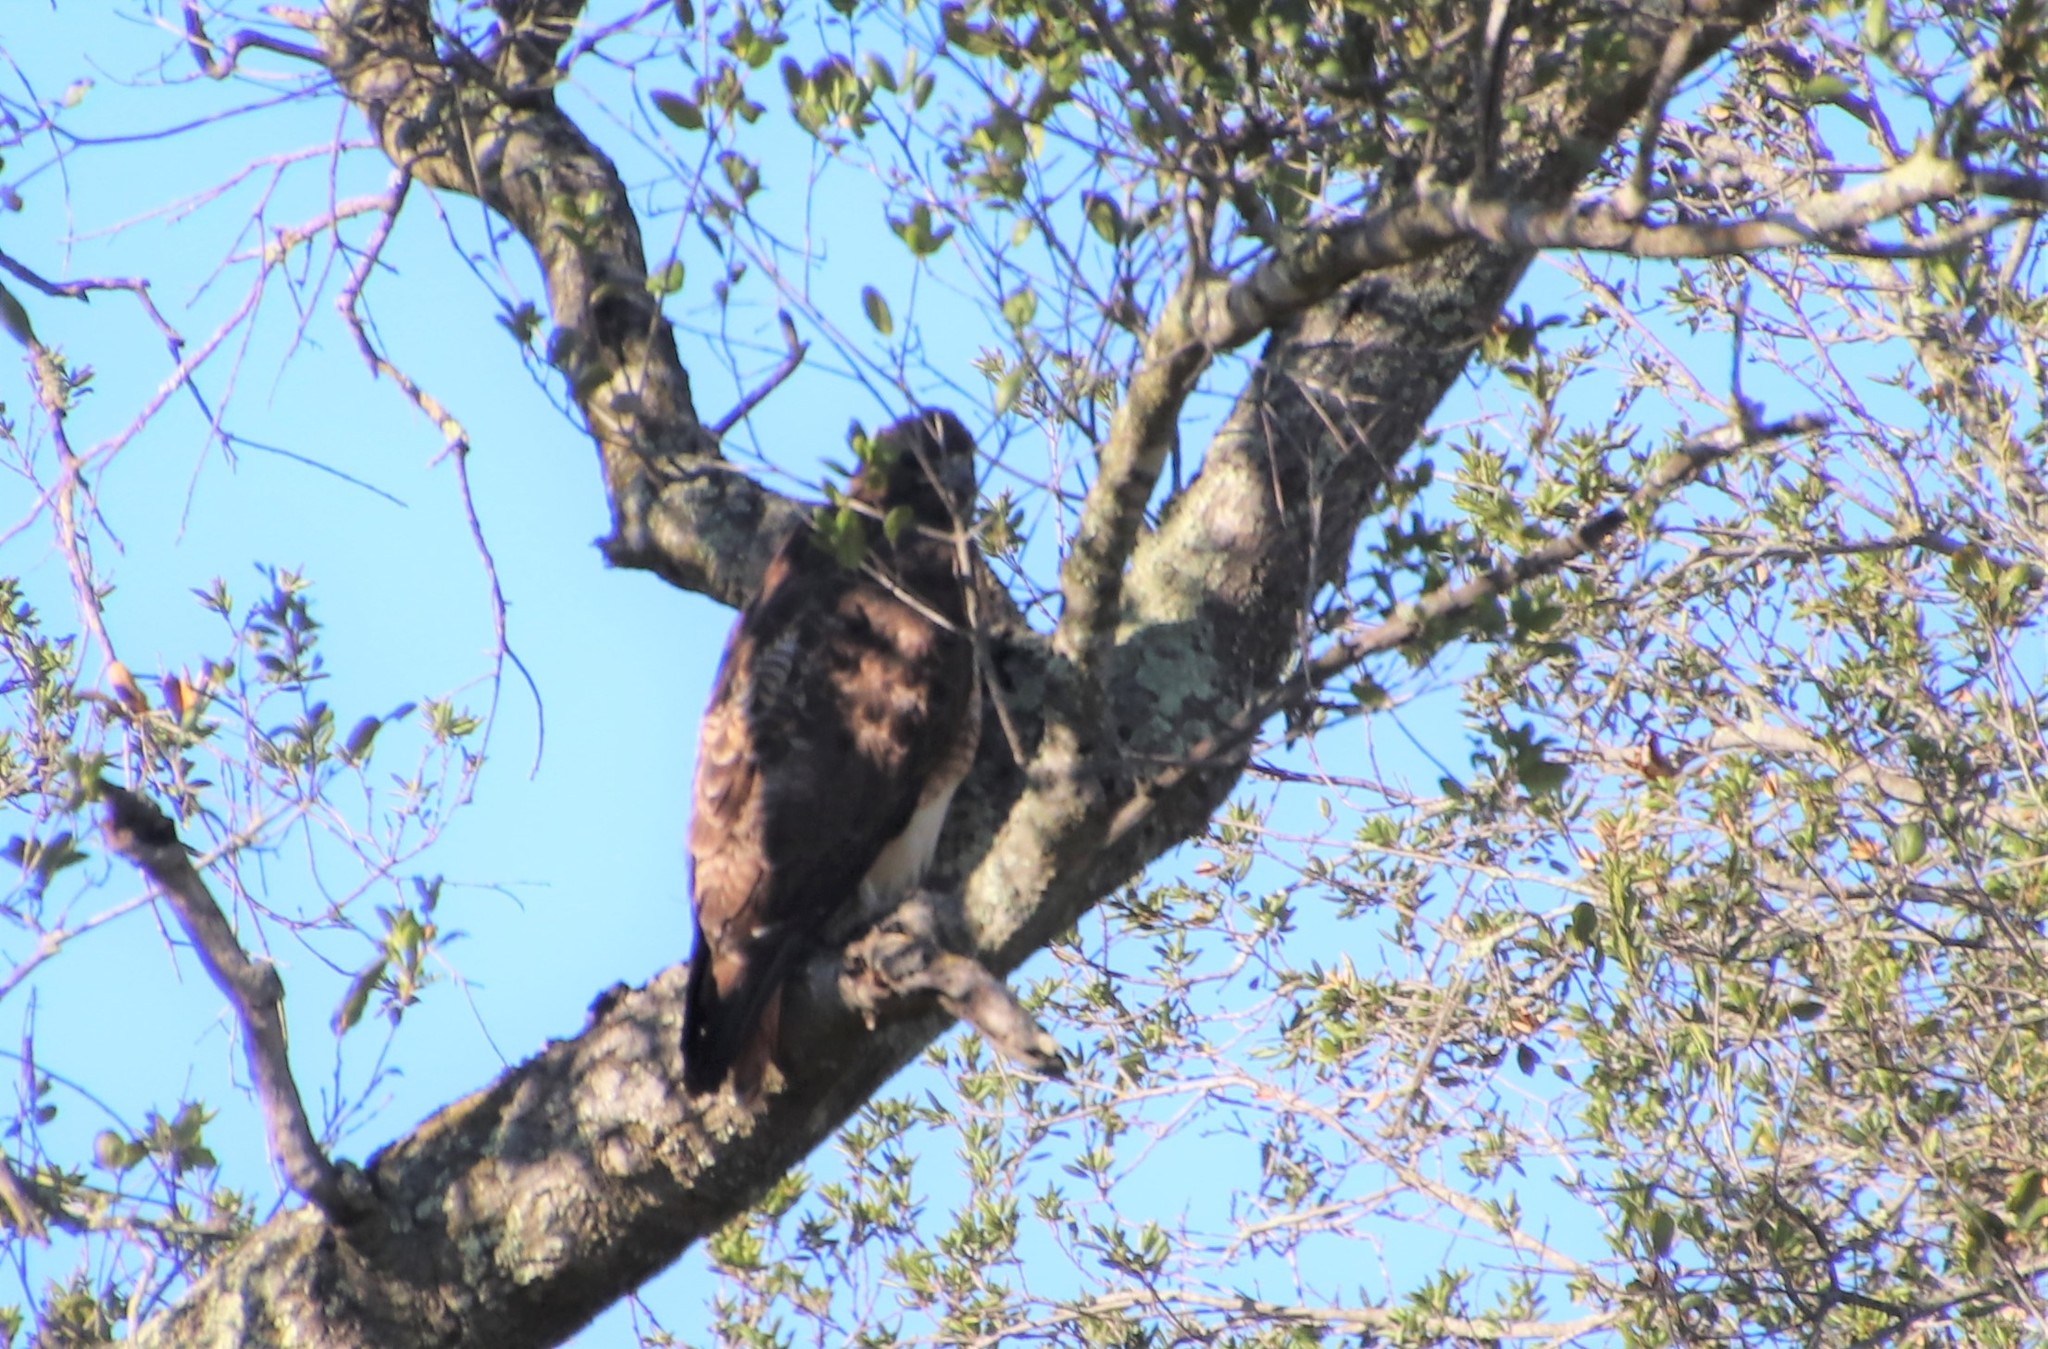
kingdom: Animalia
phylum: Chordata
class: Aves
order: Accipitriformes
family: Accipitridae
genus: Buteo
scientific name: Buteo jamaicensis
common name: Red-tailed hawk
